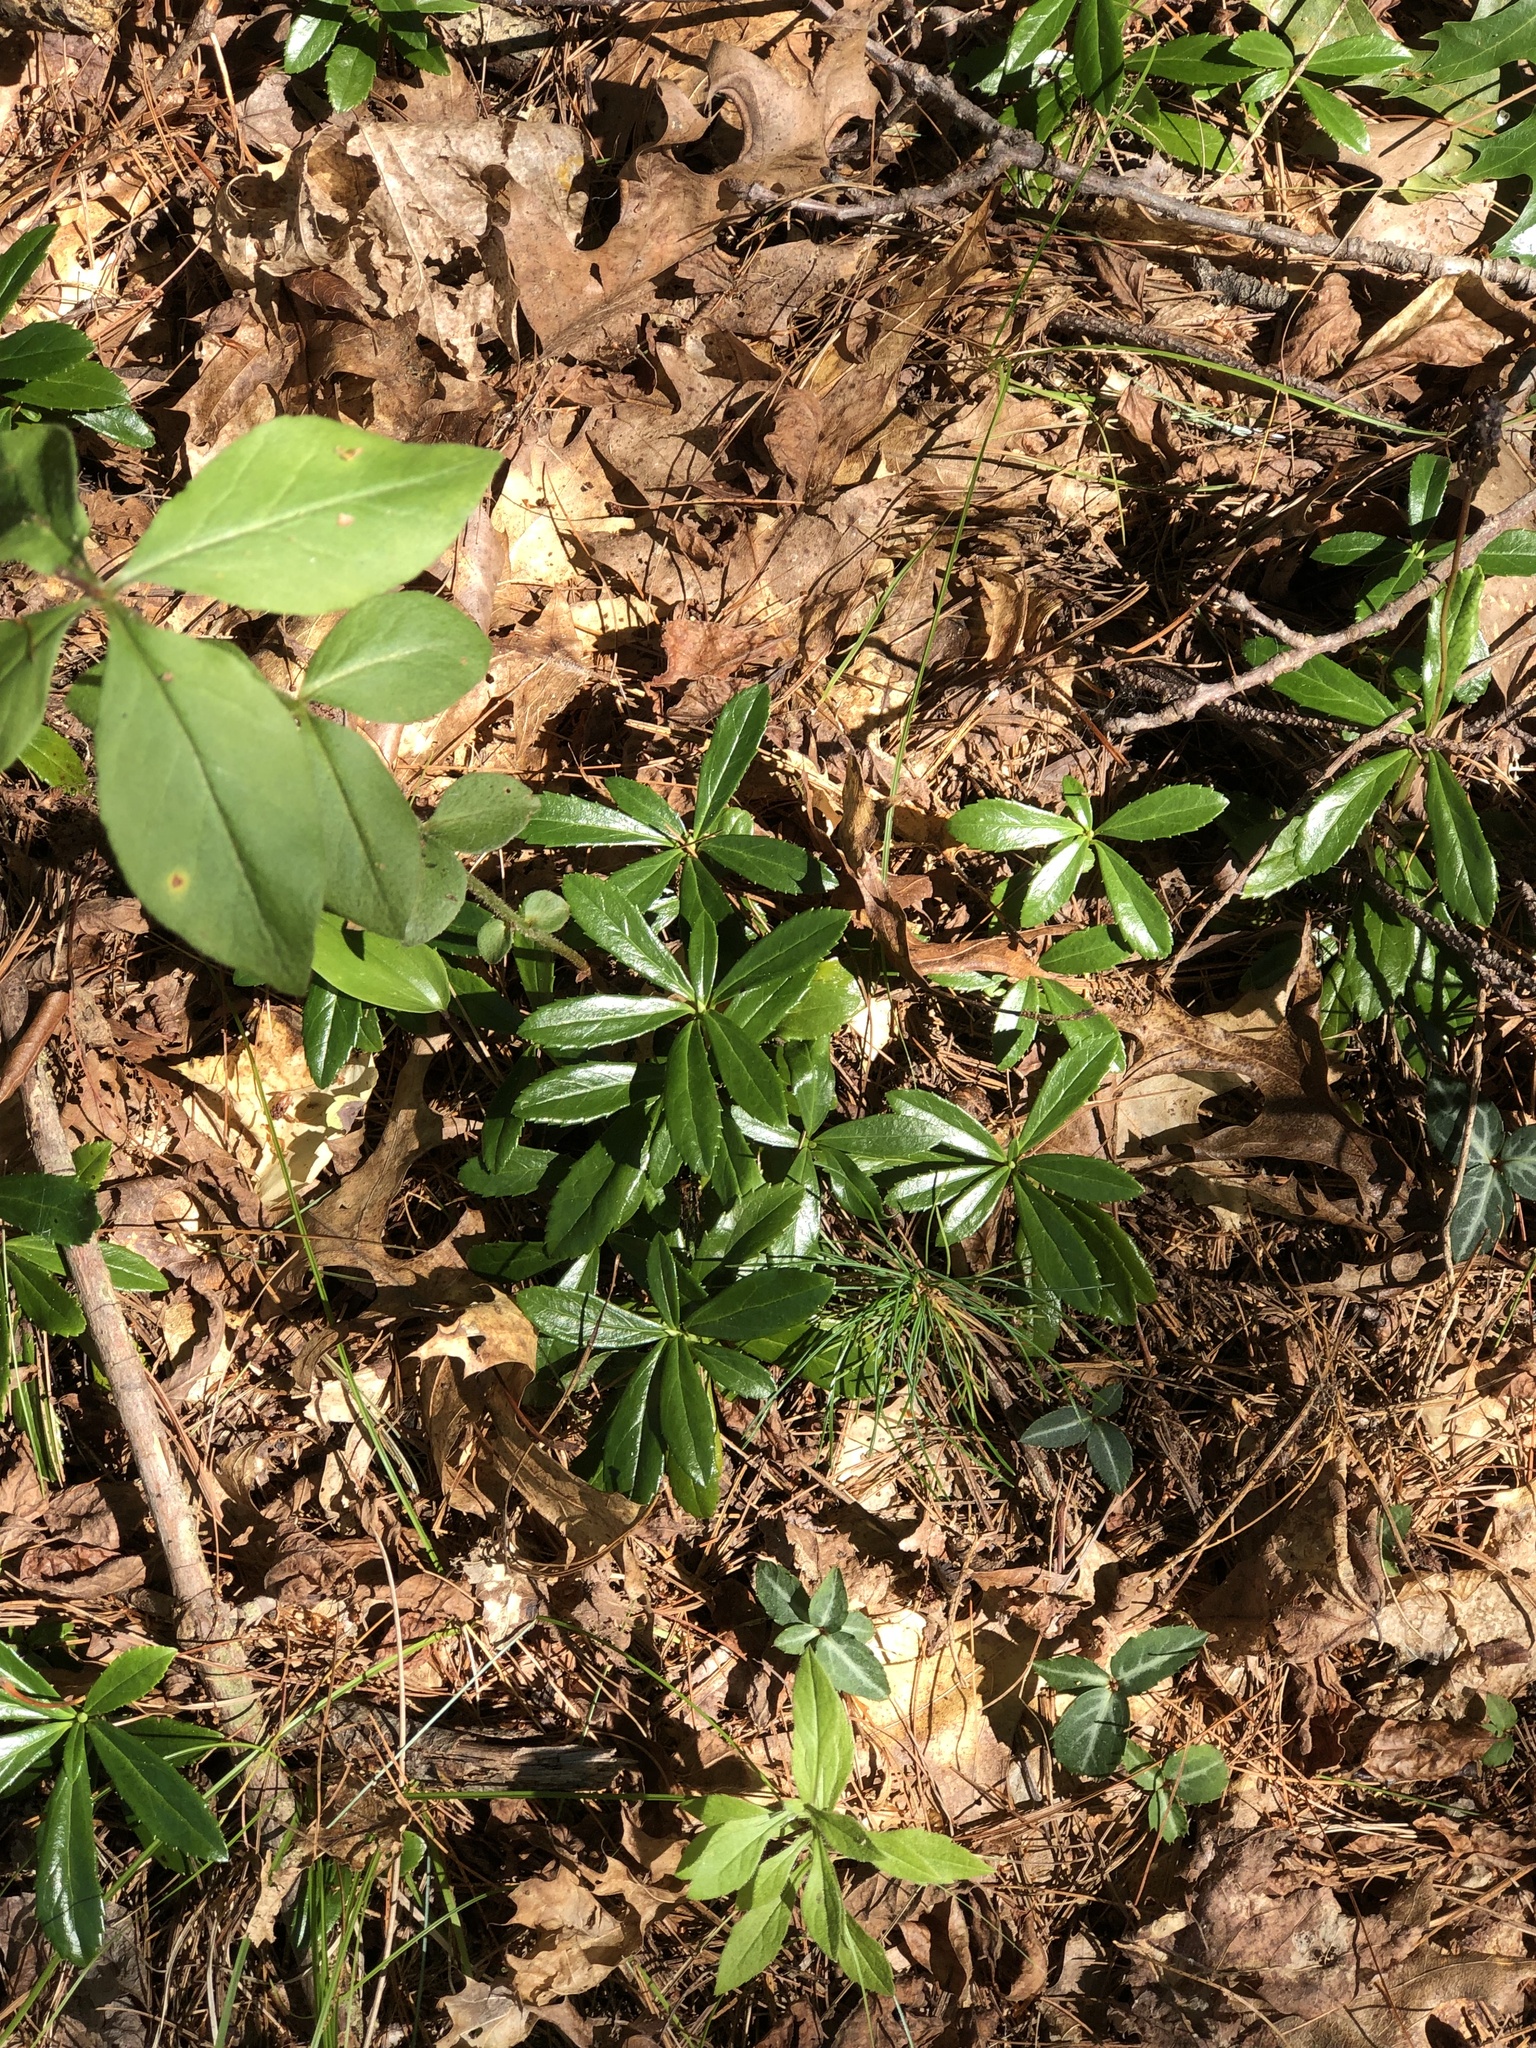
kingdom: Plantae
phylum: Tracheophyta
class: Magnoliopsida
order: Ericales
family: Ericaceae
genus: Chimaphila
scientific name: Chimaphila umbellata
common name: Pipsissewa
